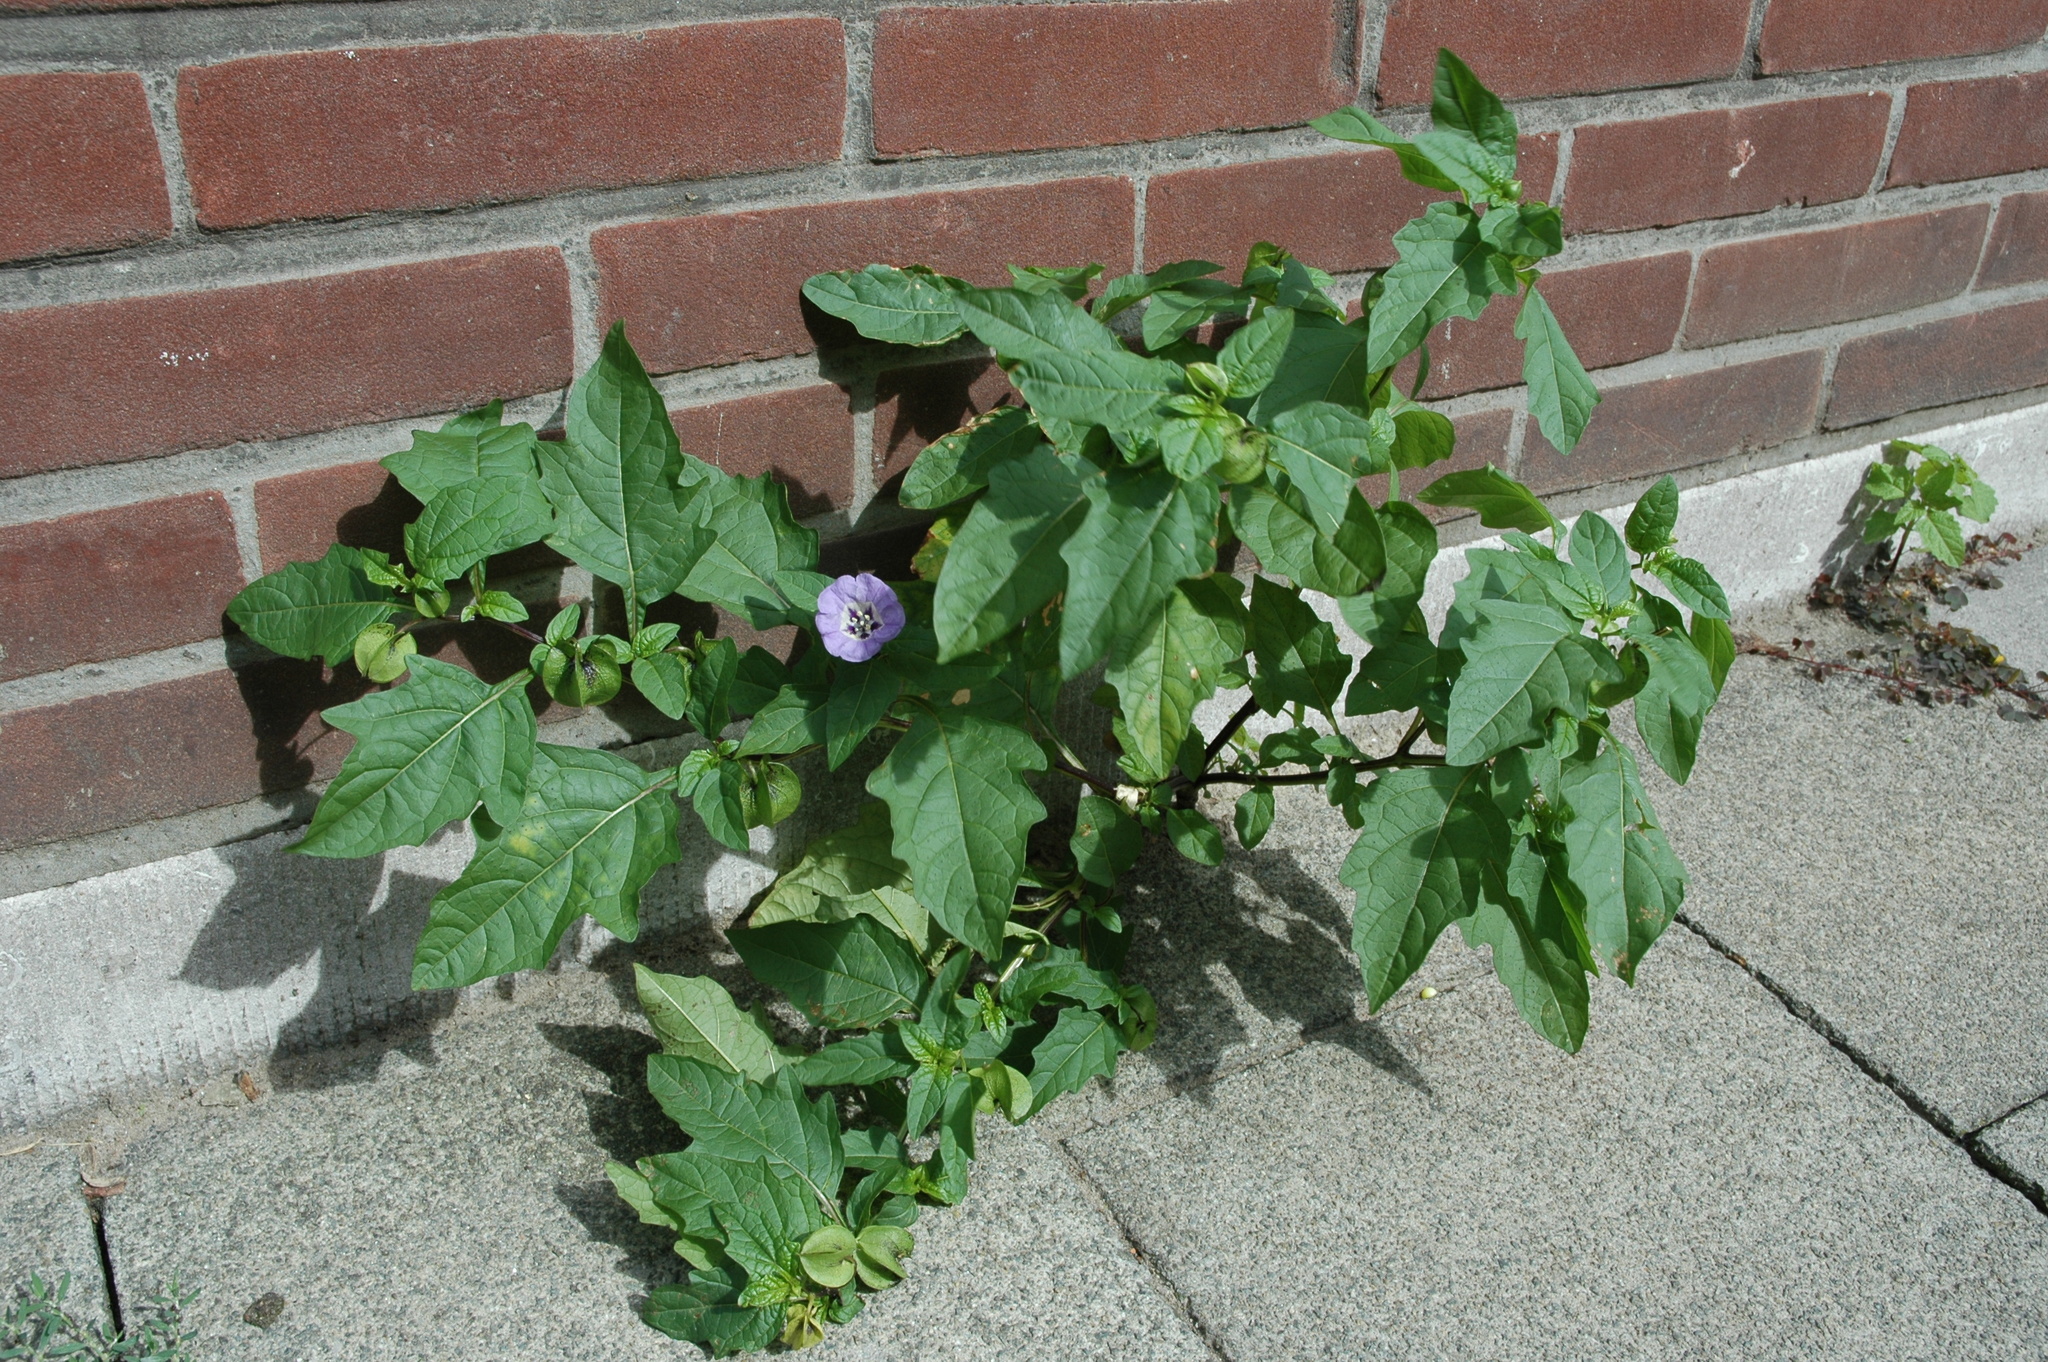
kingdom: Plantae
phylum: Tracheophyta
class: Magnoliopsida
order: Solanales
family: Solanaceae
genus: Nicandra
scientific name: Nicandra physalodes
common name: Apple-of-peru
